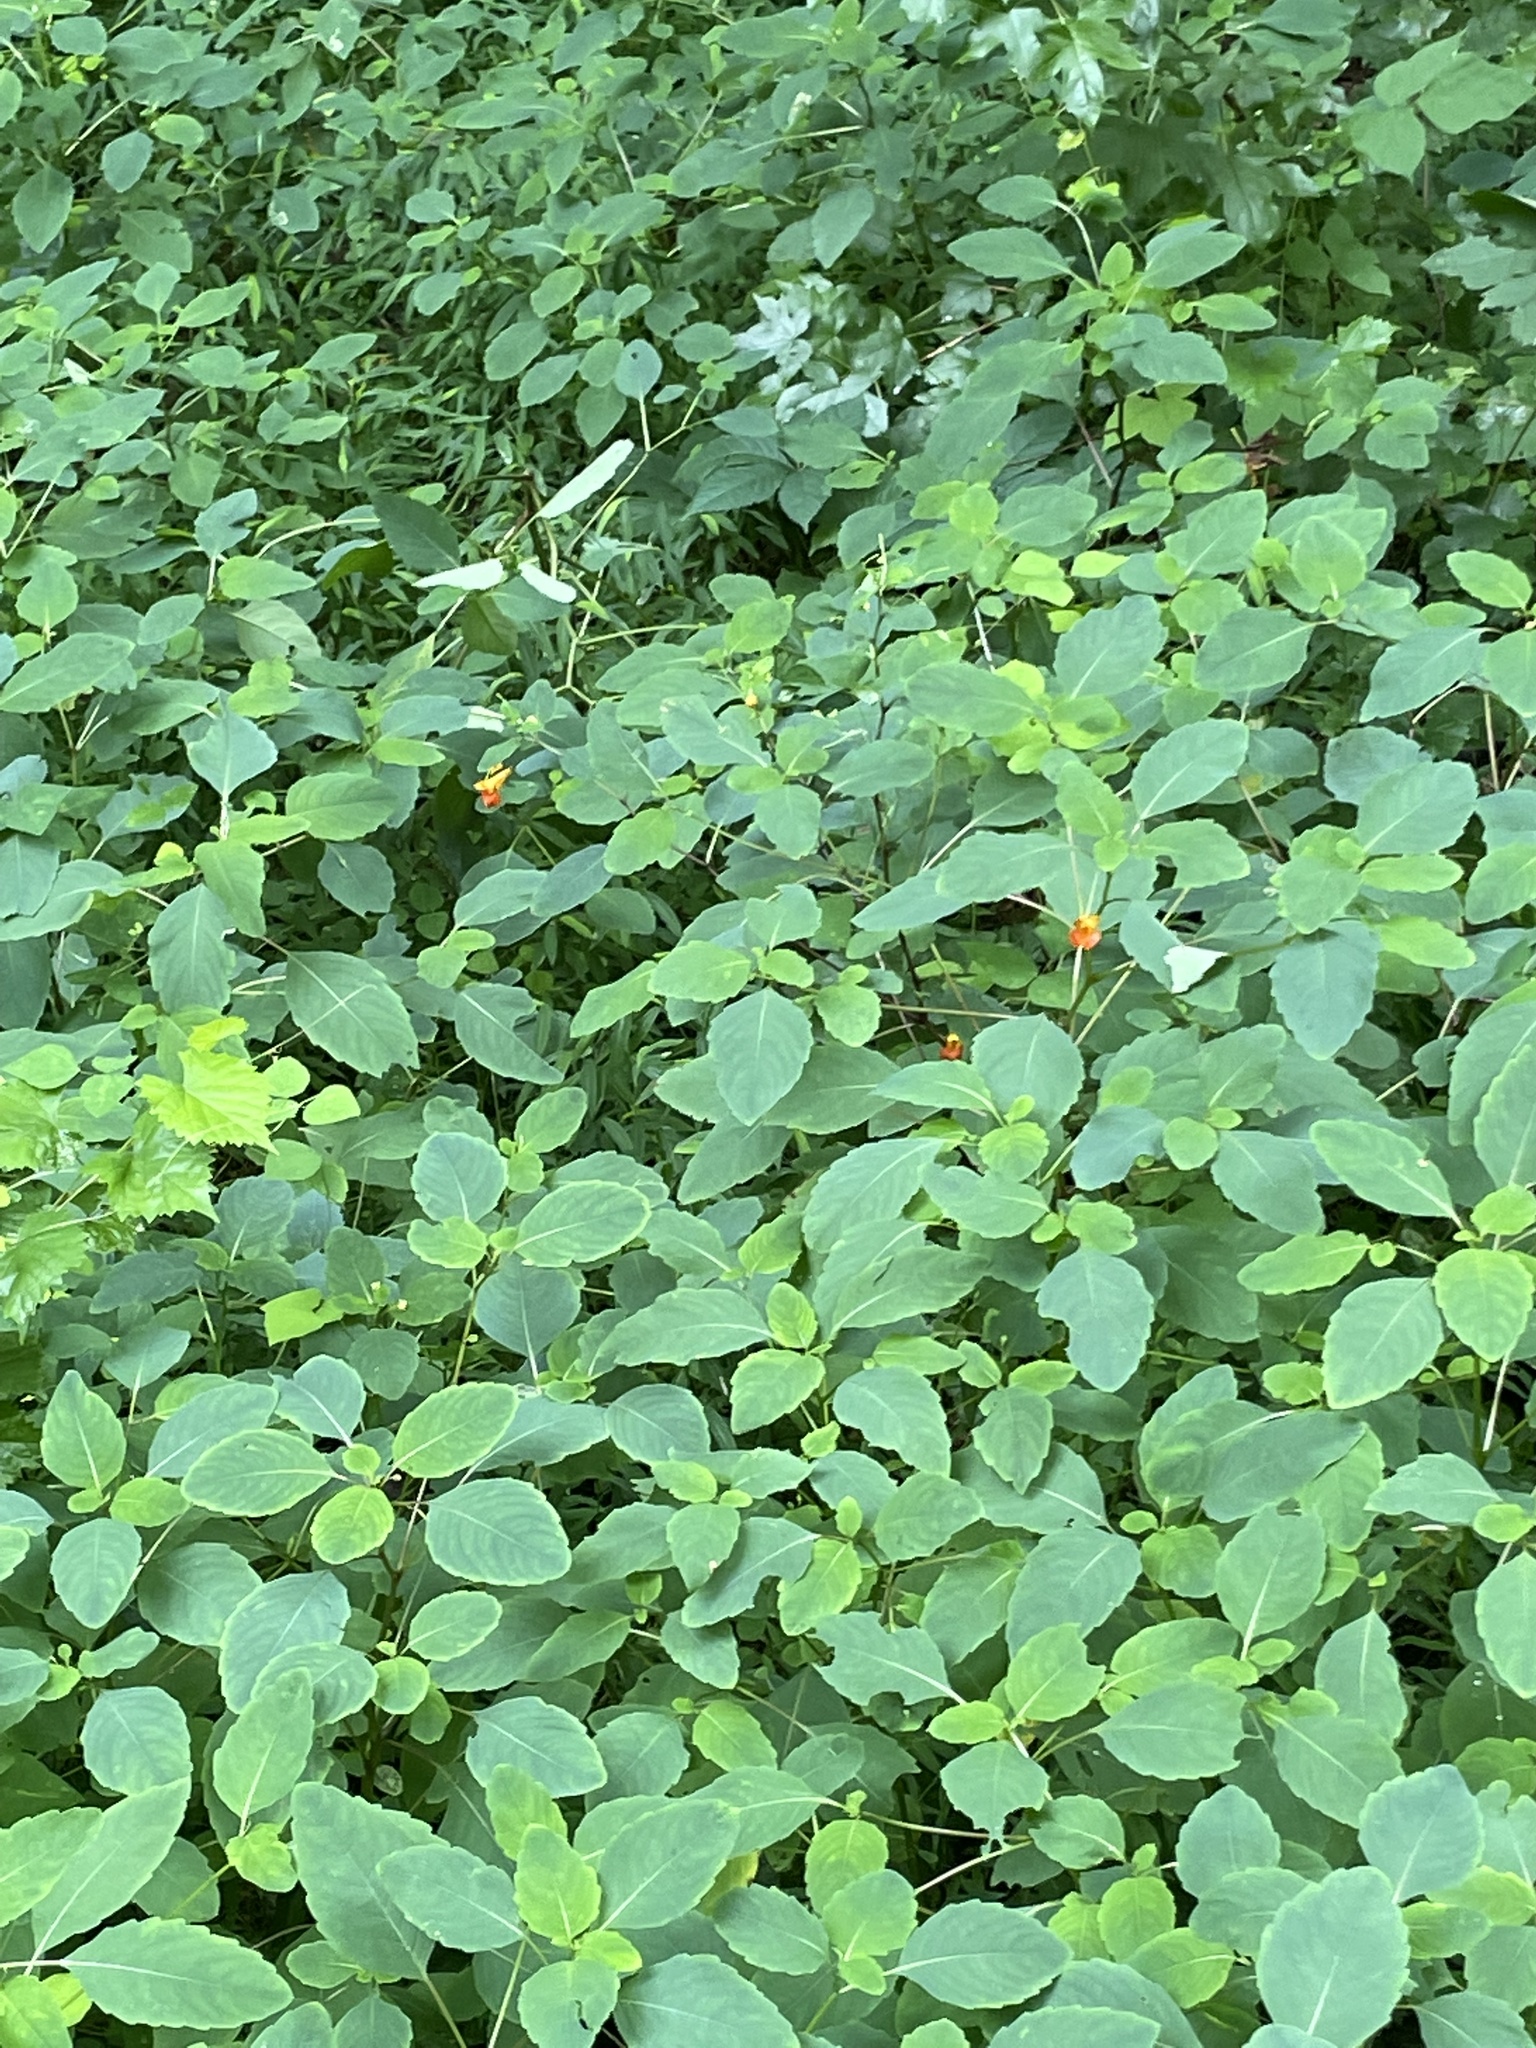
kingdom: Plantae
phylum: Tracheophyta
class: Magnoliopsida
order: Ericales
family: Balsaminaceae
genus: Impatiens
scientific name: Impatiens capensis
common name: Orange balsam
